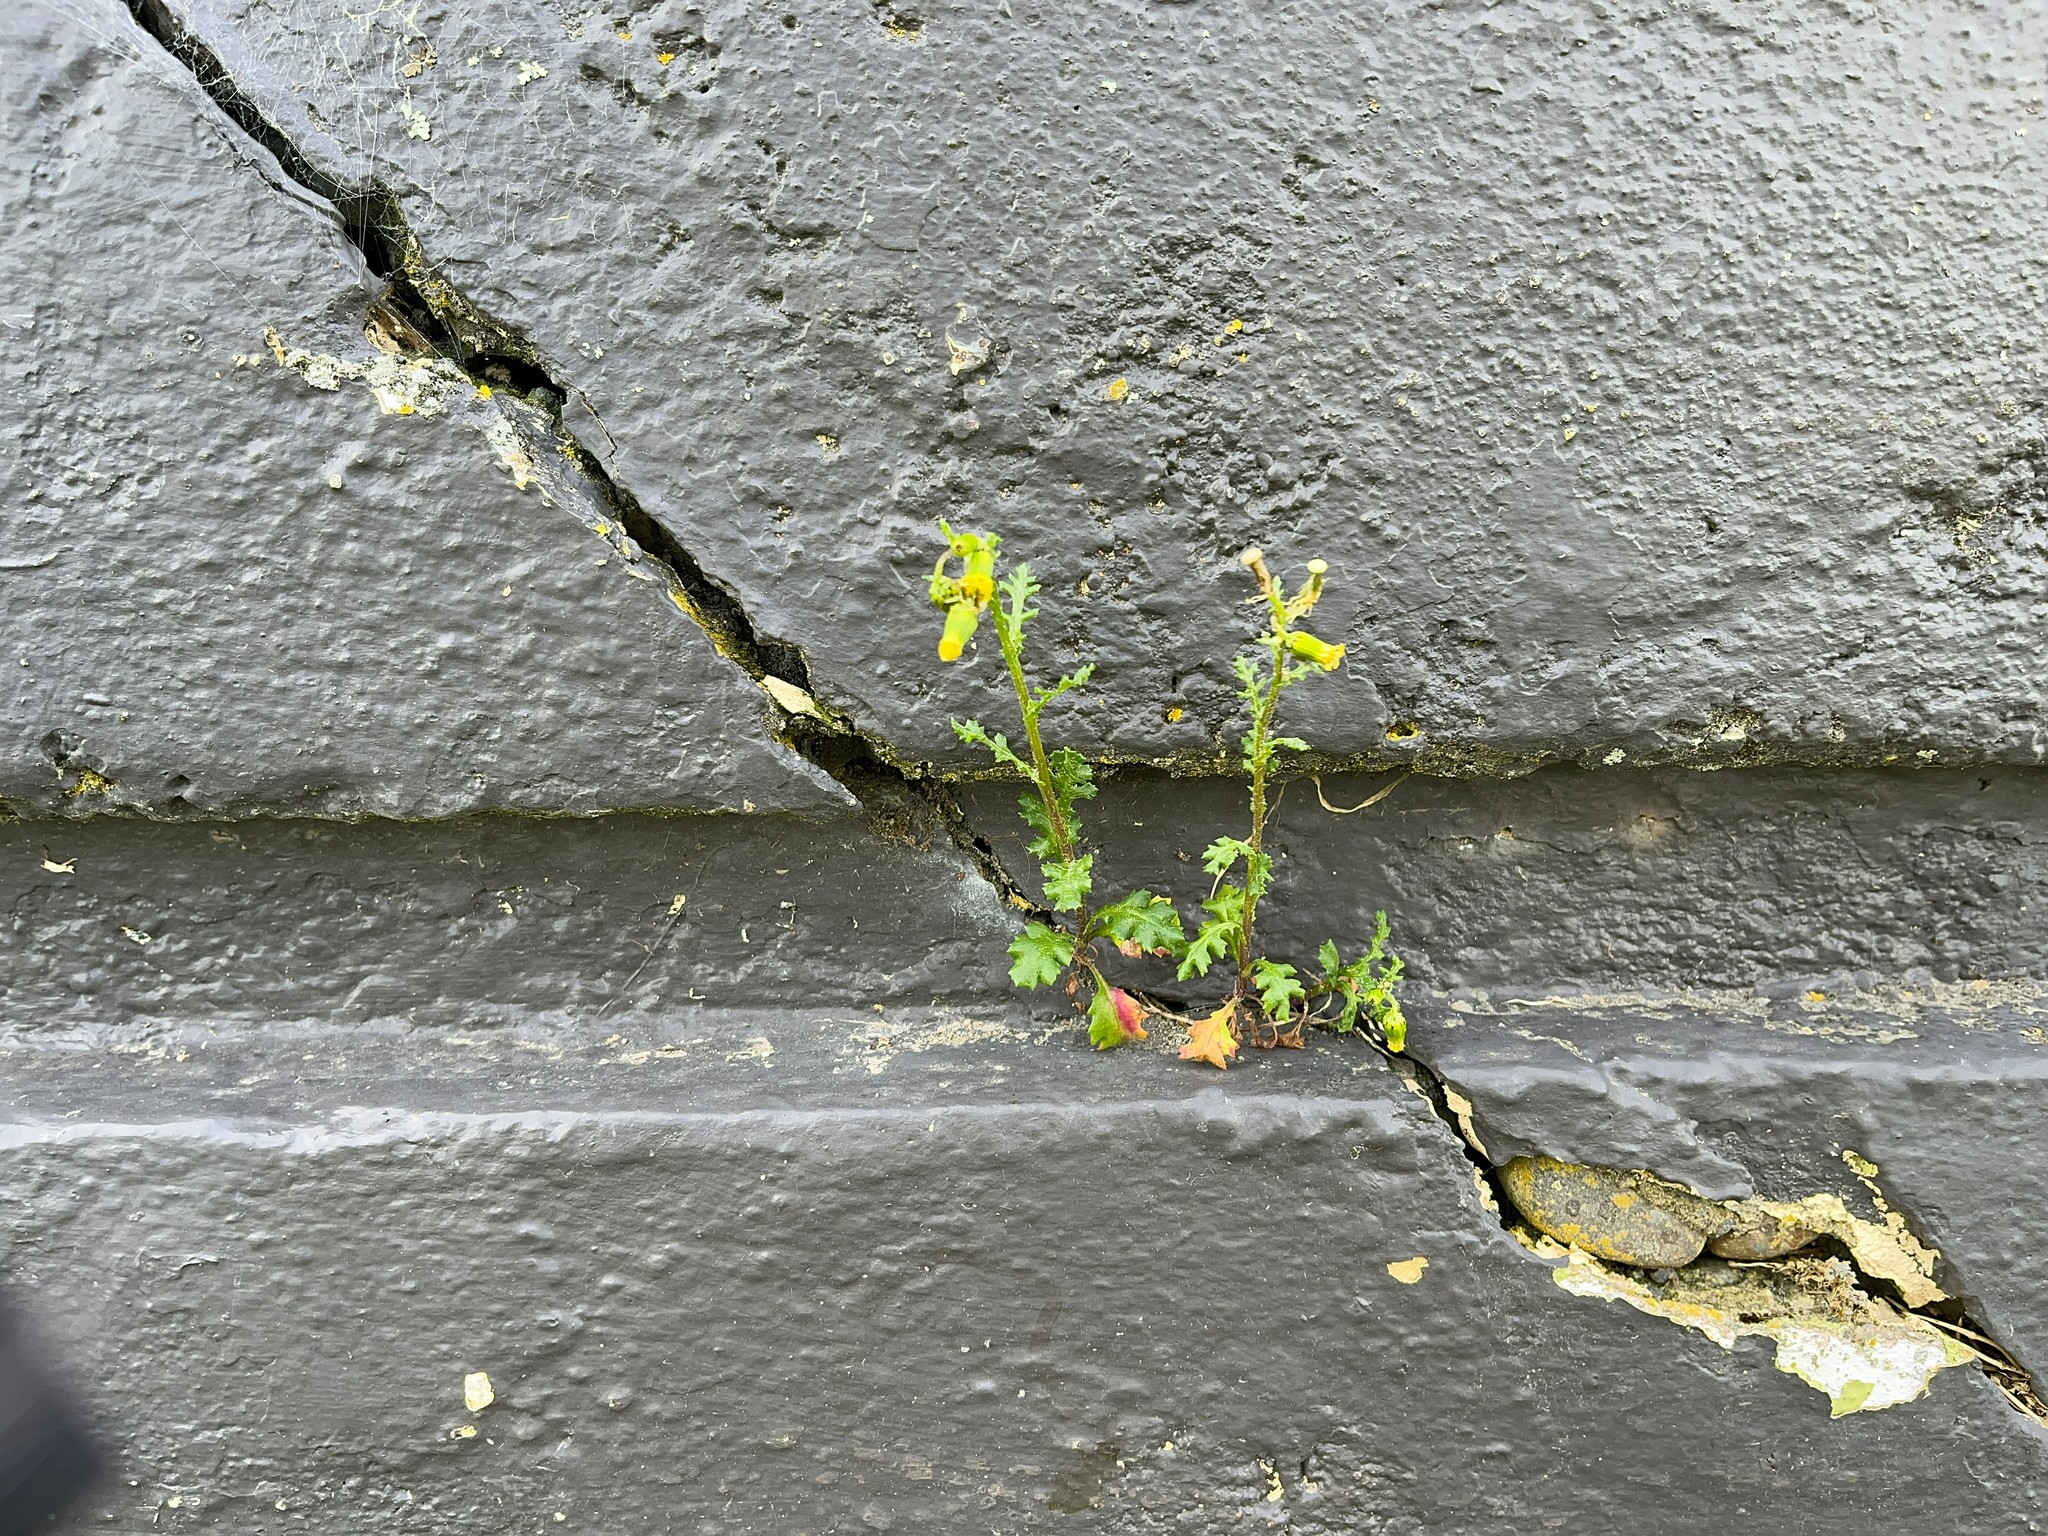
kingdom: Plantae
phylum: Tracheophyta
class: Magnoliopsida
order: Asterales
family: Asteraceae
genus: Senecio
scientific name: Senecio vulgaris
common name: Old-man-in-the-spring
